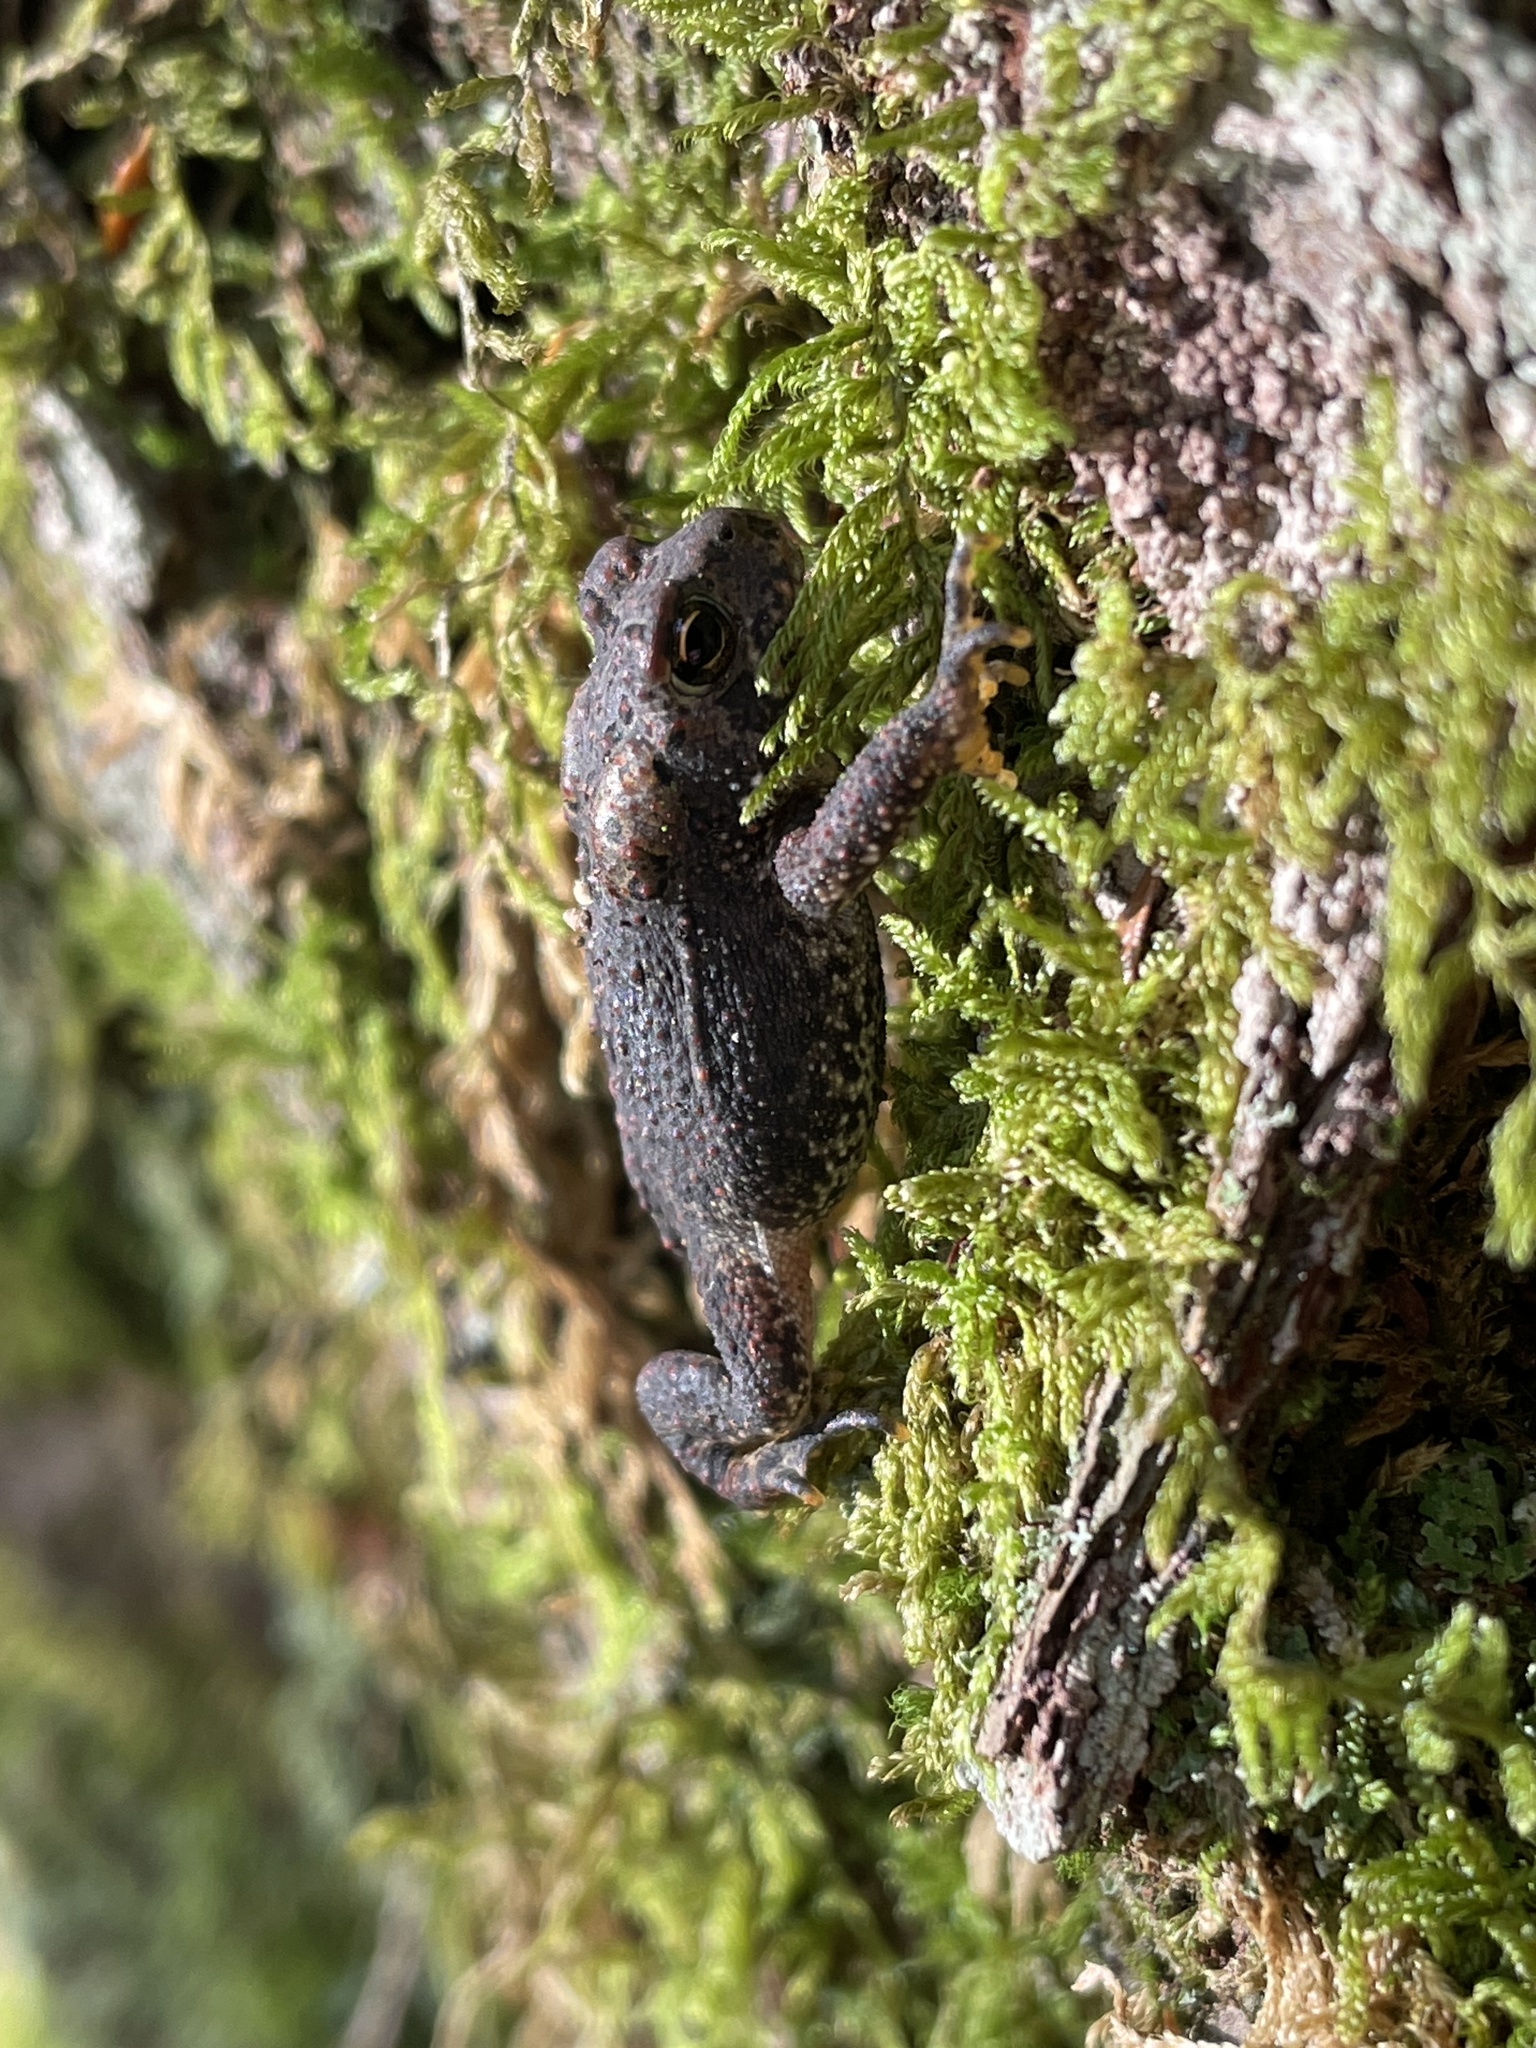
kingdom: Animalia
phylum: Chordata
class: Amphibia
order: Anura
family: Bufonidae
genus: Anaxyrus
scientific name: Anaxyrus americanus
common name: American toad
